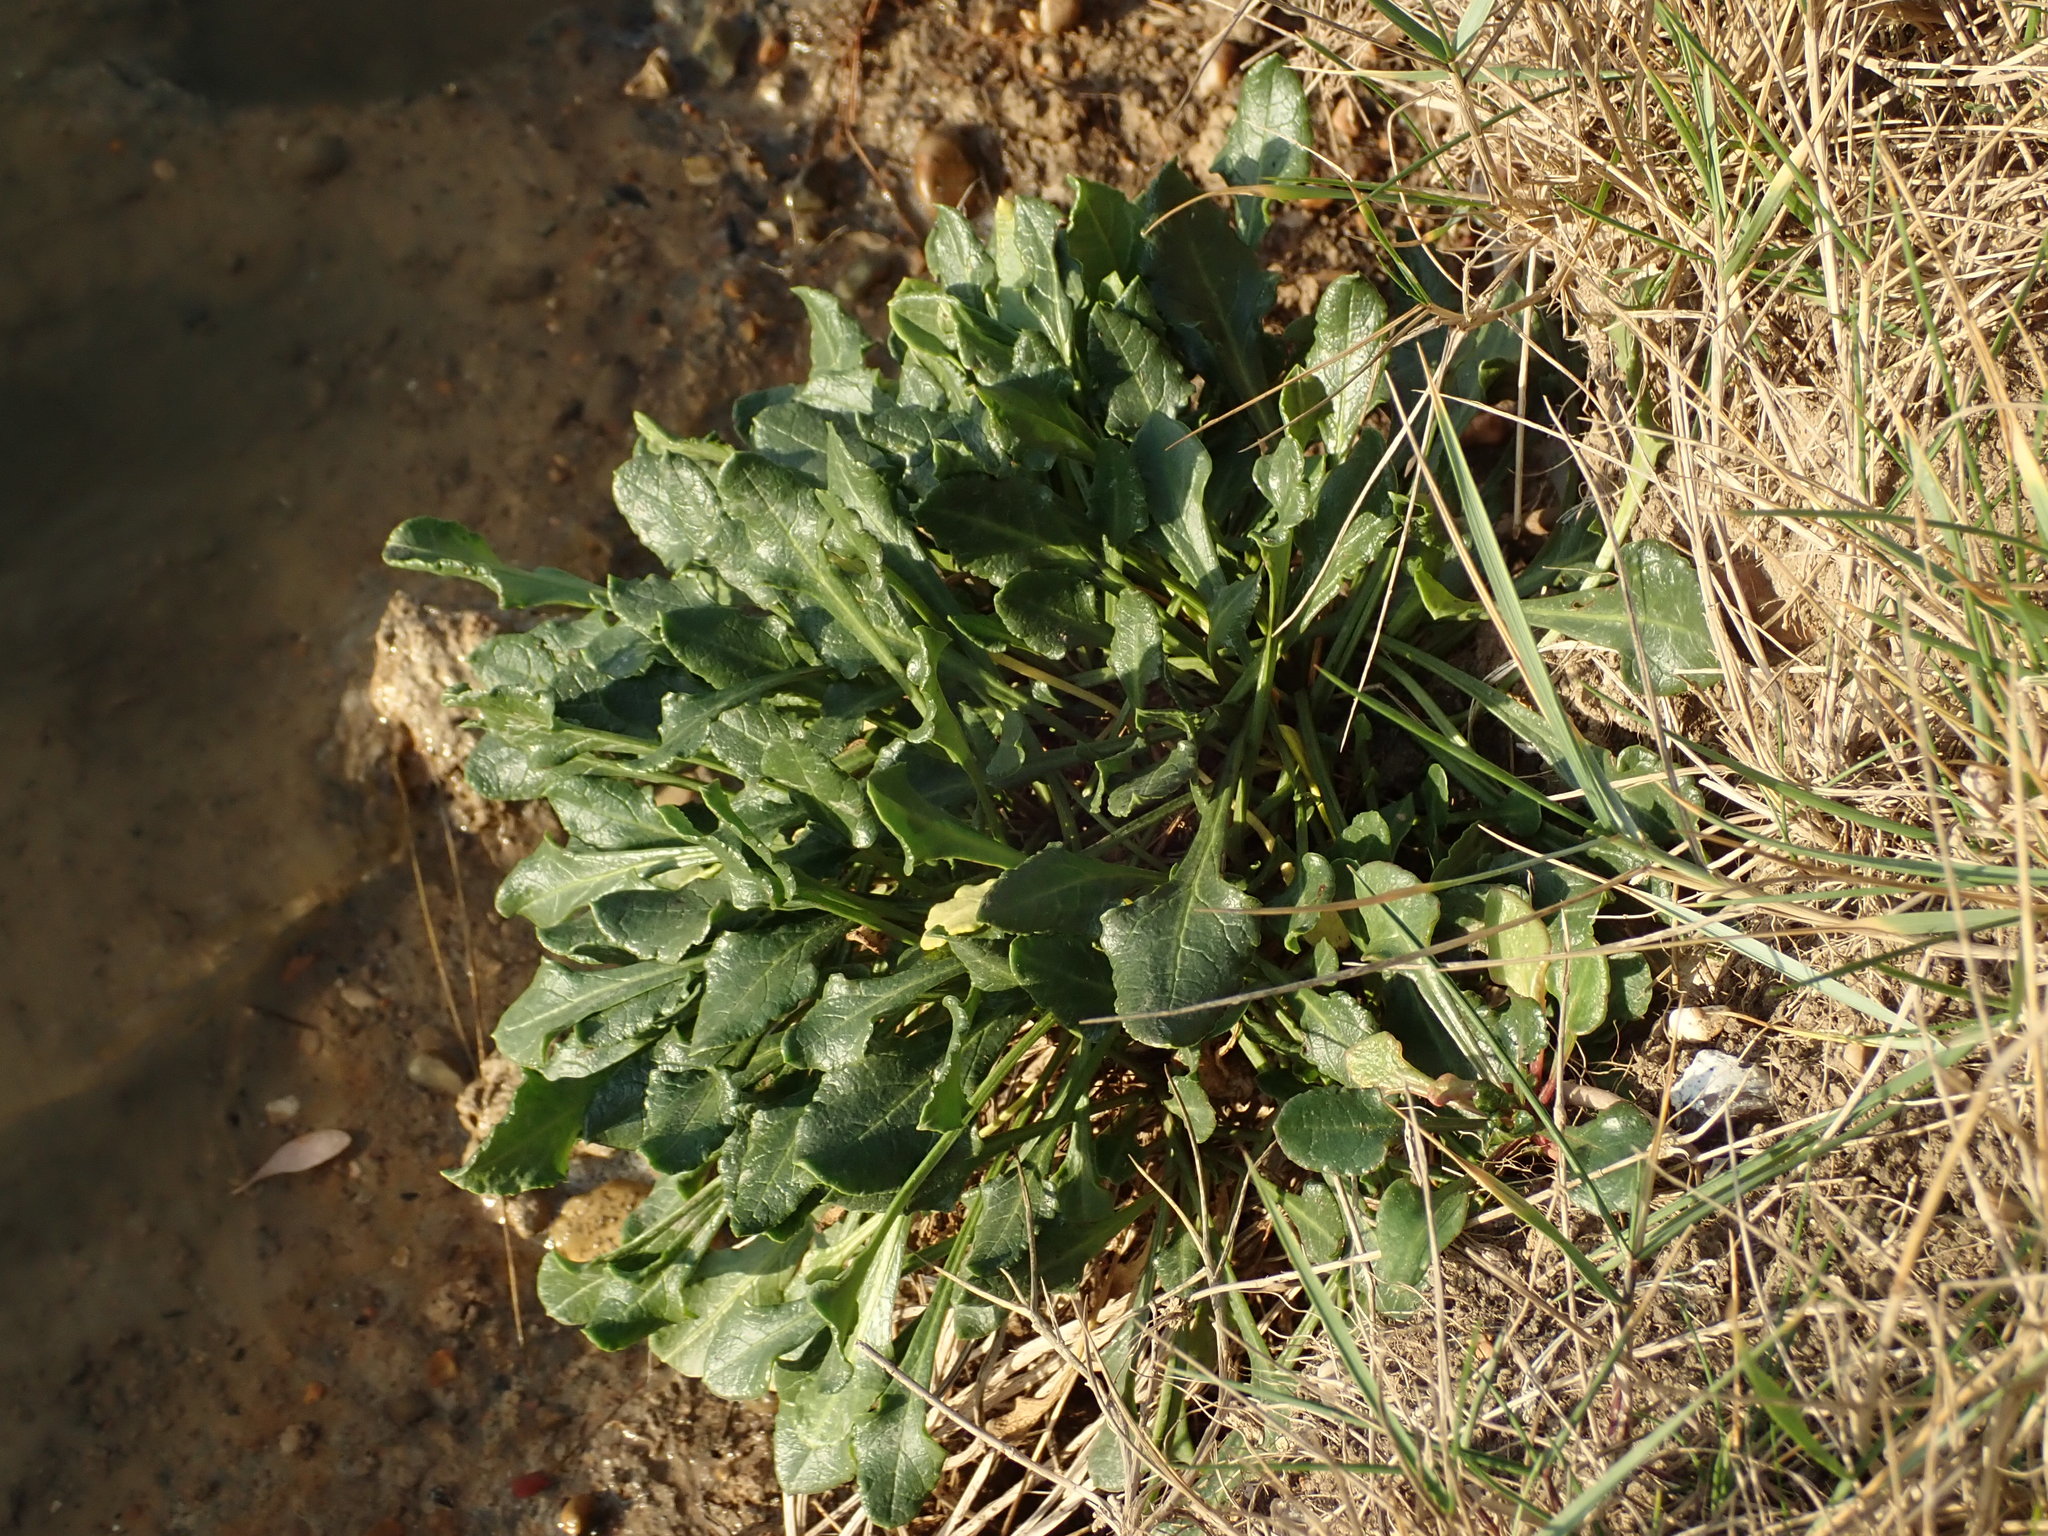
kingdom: Plantae
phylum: Tracheophyta
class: Magnoliopsida
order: Caryophyllales
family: Amaranthaceae
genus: Beta
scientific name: Beta vulgaris
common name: Beet
